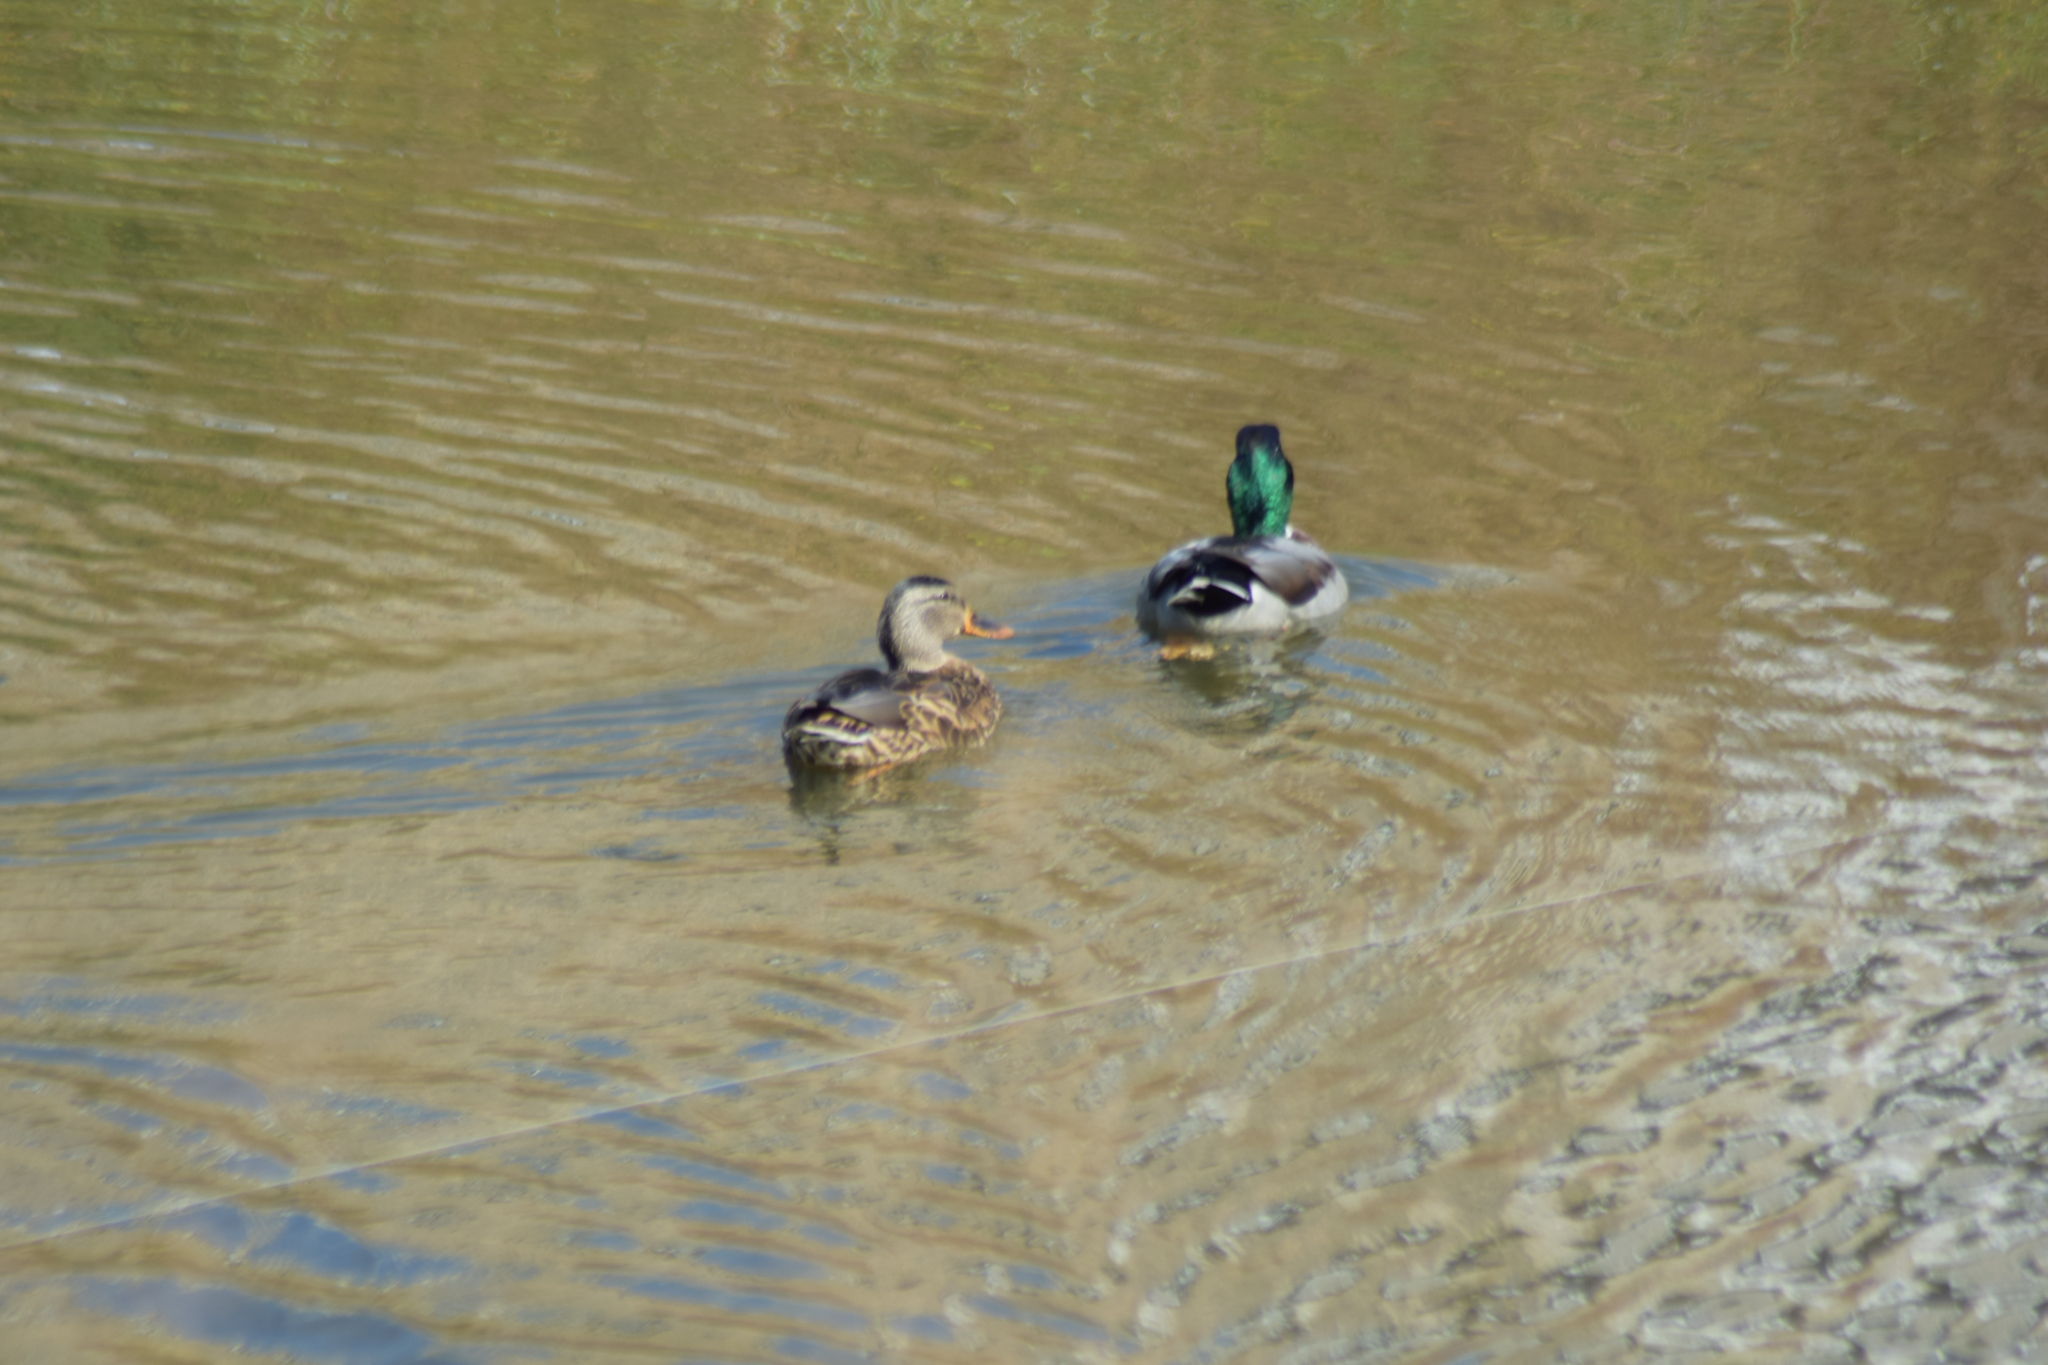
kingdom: Animalia
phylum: Chordata
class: Aves
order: Anseriformes
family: Anatidae
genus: Anas
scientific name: Anas platyrhynchos
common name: Mallard
